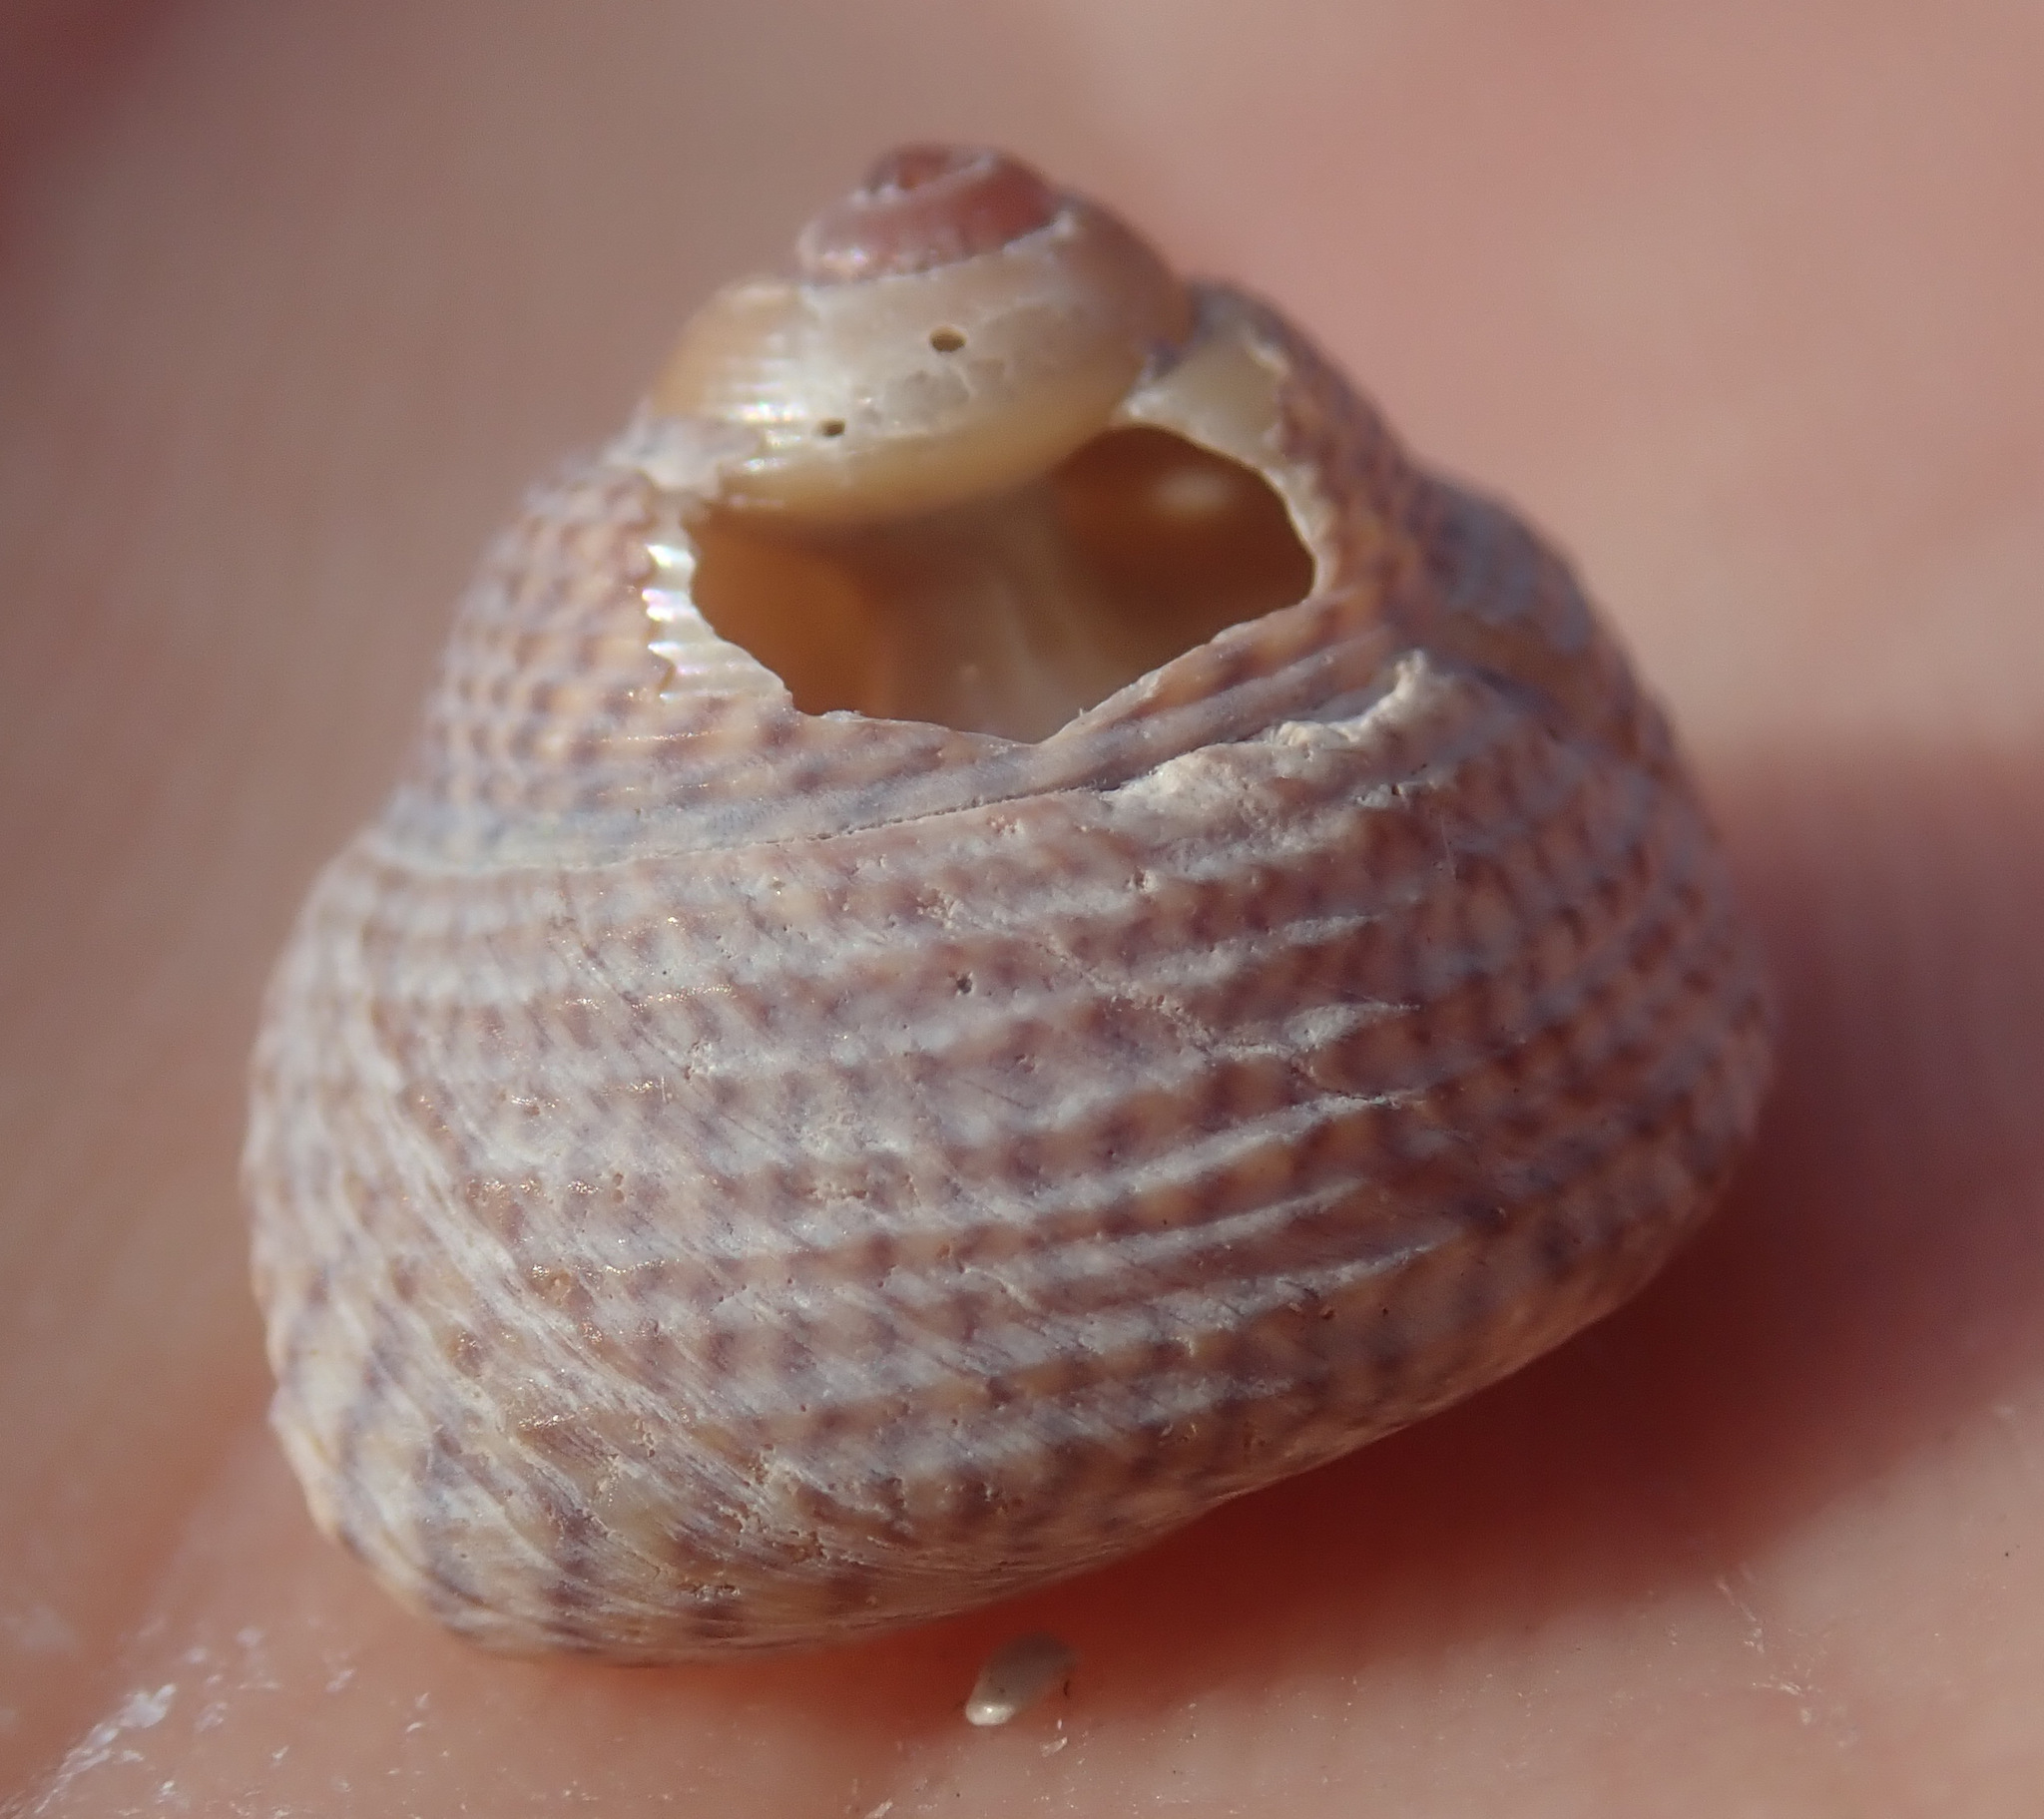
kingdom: Animalia
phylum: Mollusca
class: Gastropoda
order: Trochida
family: Trochidae
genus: Steromphala
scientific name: Steromphala cineraria
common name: Grey top shell
